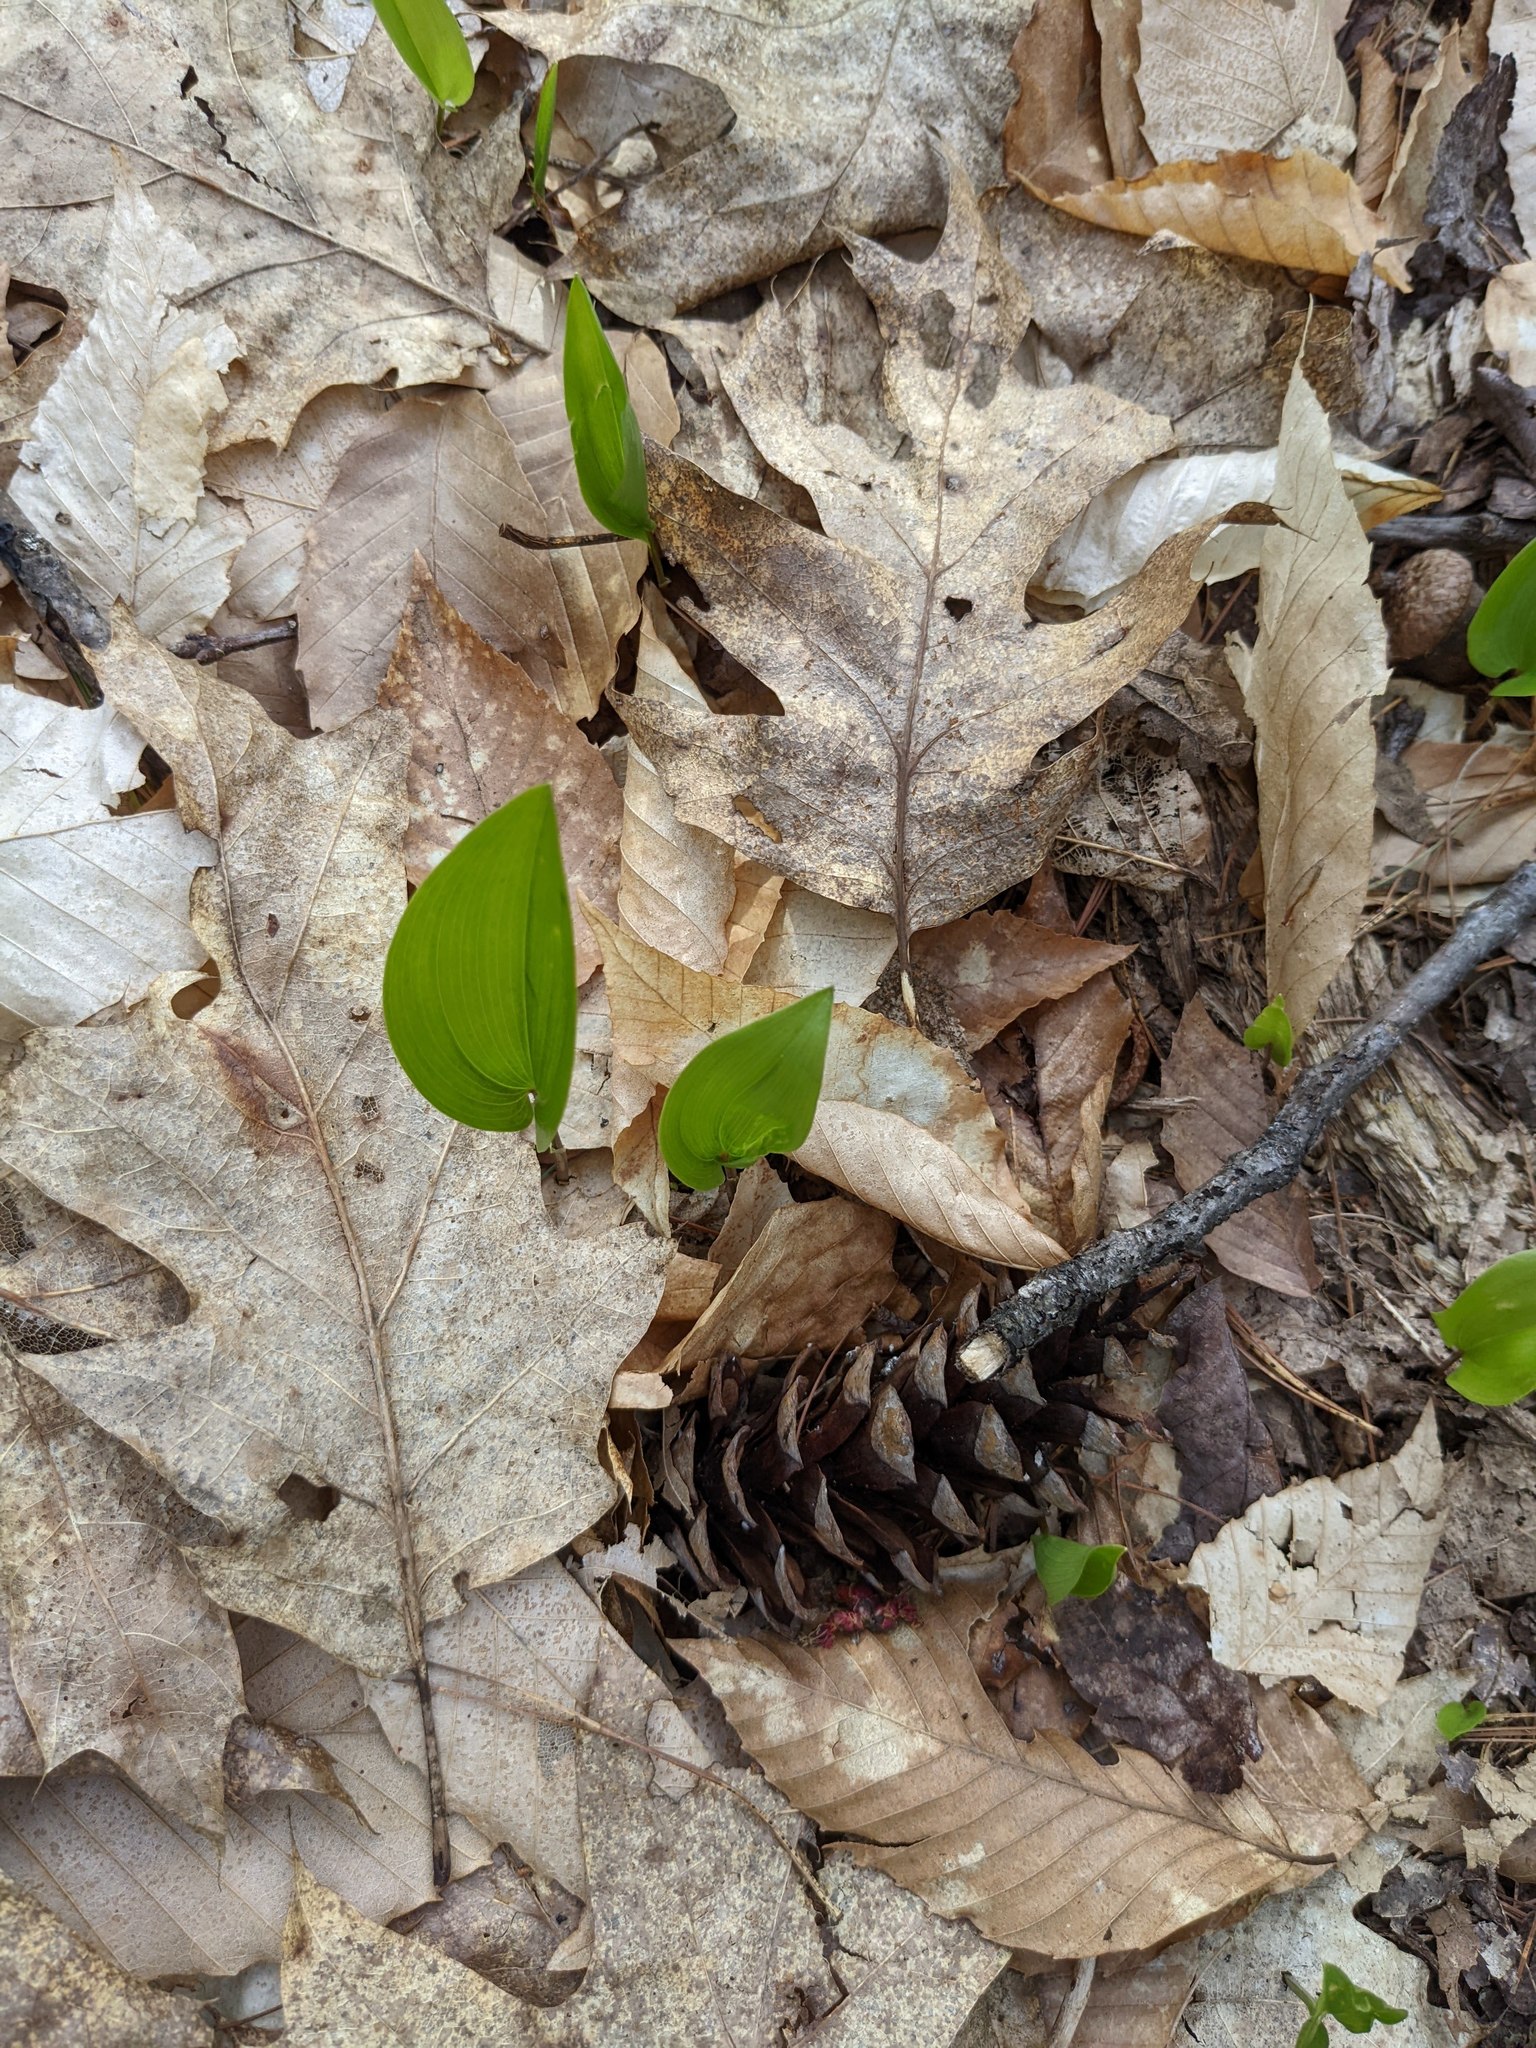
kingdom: Plantae
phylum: Tracheophyta
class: Liliopsida
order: Asparagales
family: Asparagaceae
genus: Maianthemum
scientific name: Maianthemum canadense
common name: False lily-of-the-valley
